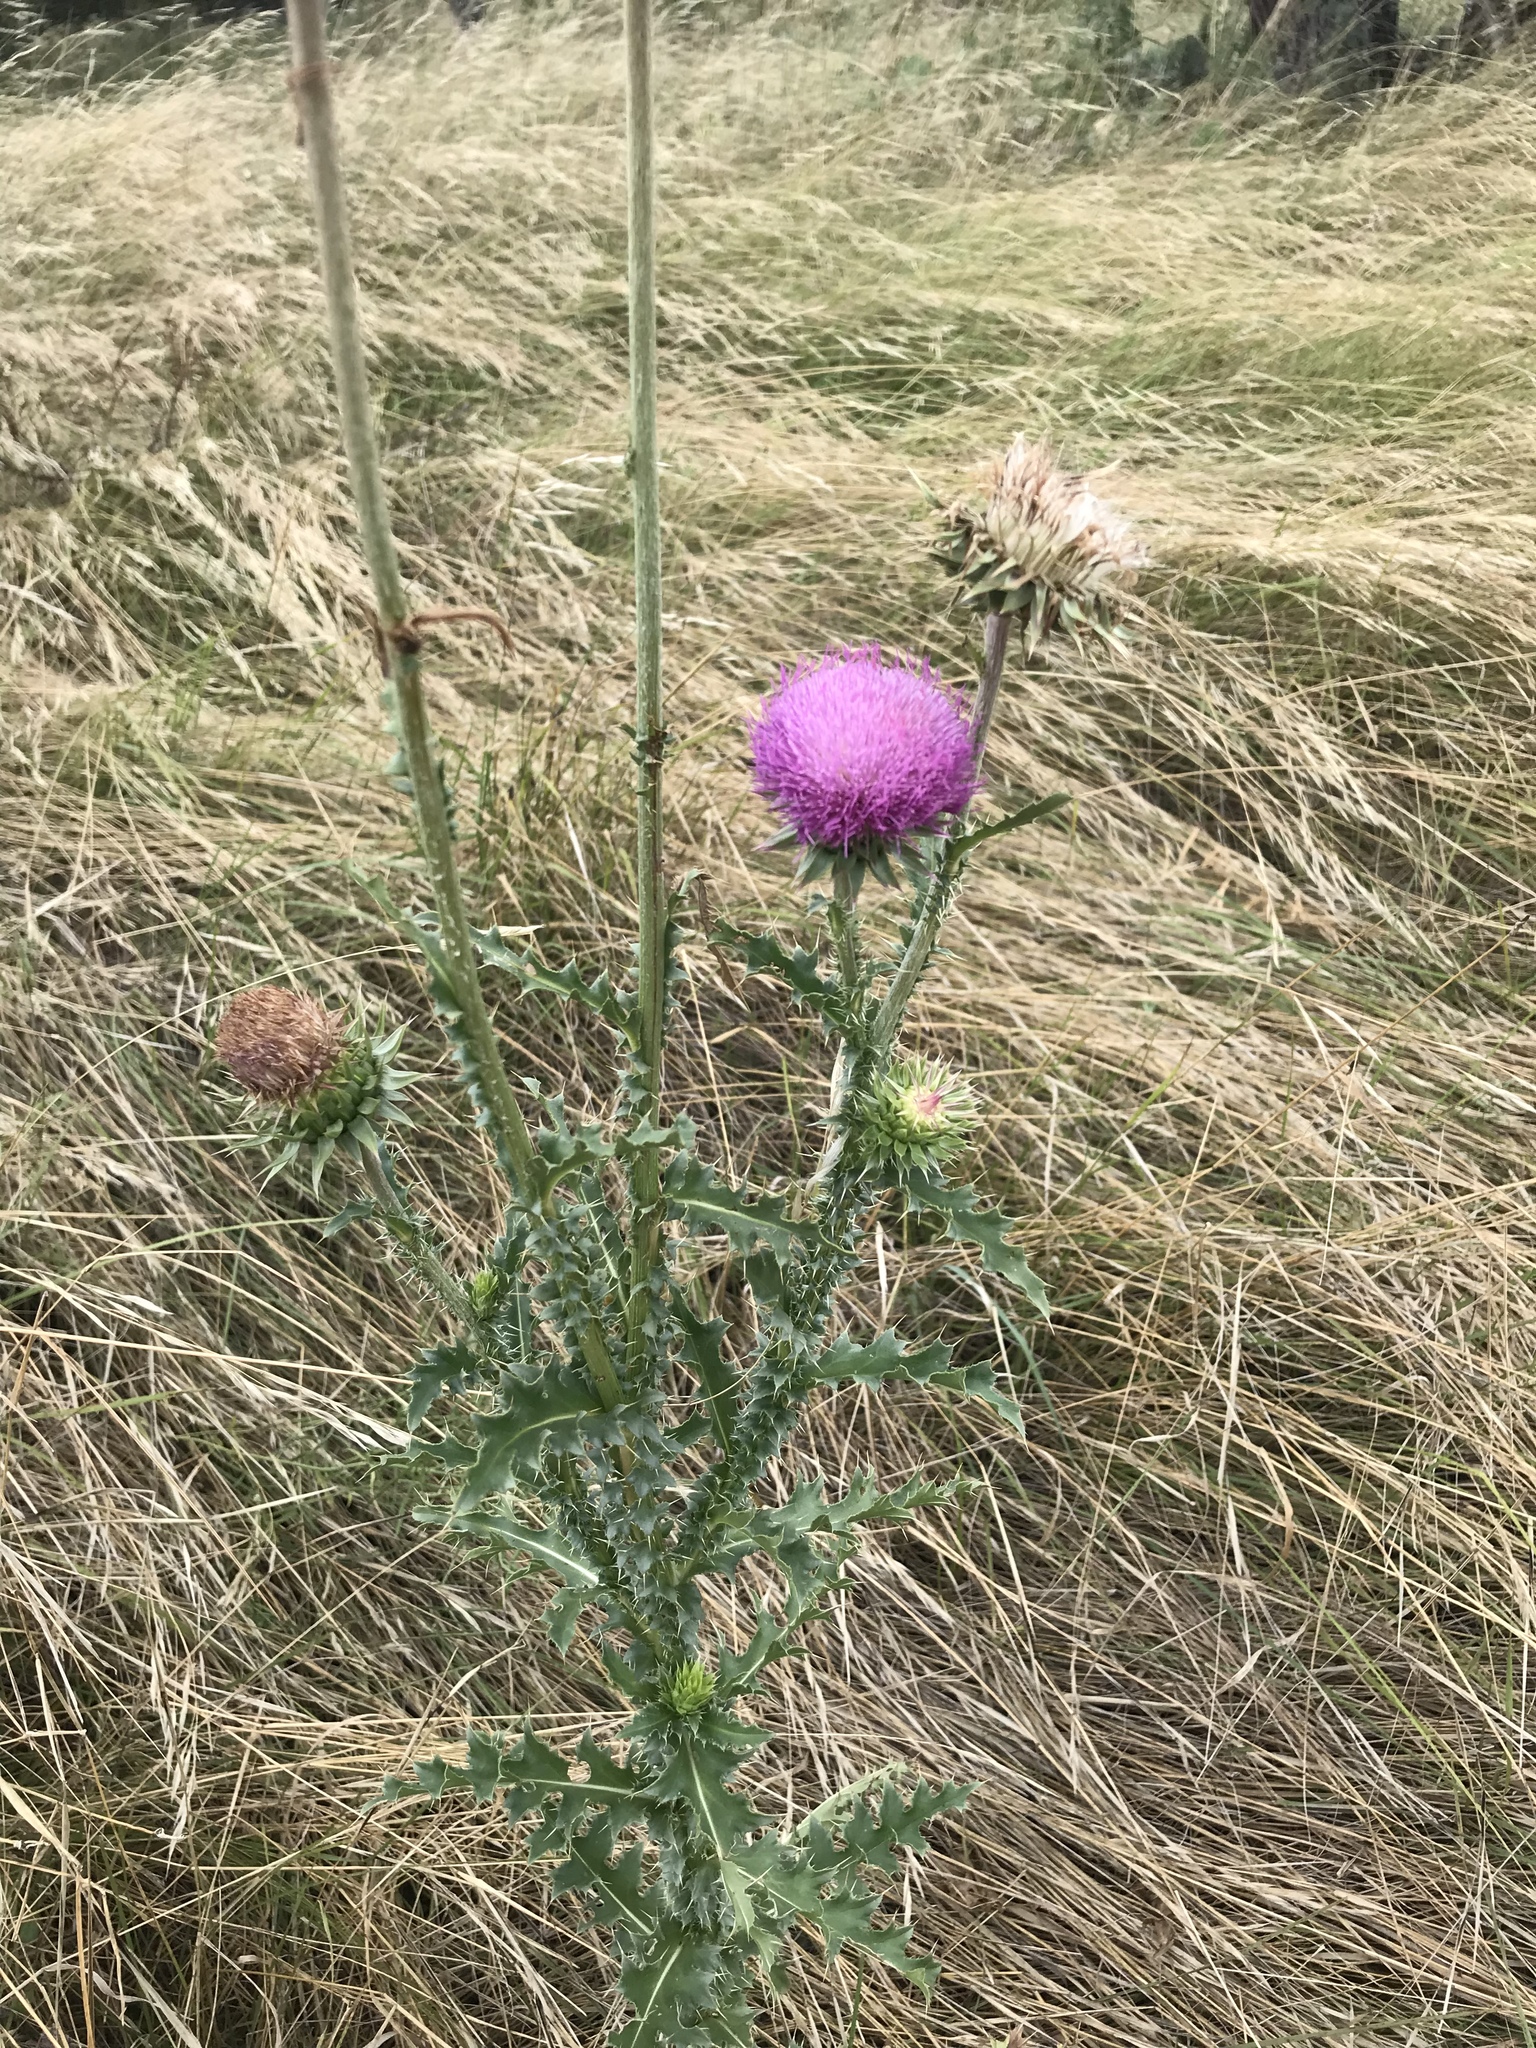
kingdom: Plantae
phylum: Tracheophyta
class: Magnoliopsida
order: Asterales
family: Asteraceae
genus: Carduus
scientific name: Carduus nutans
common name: Musk thistle
